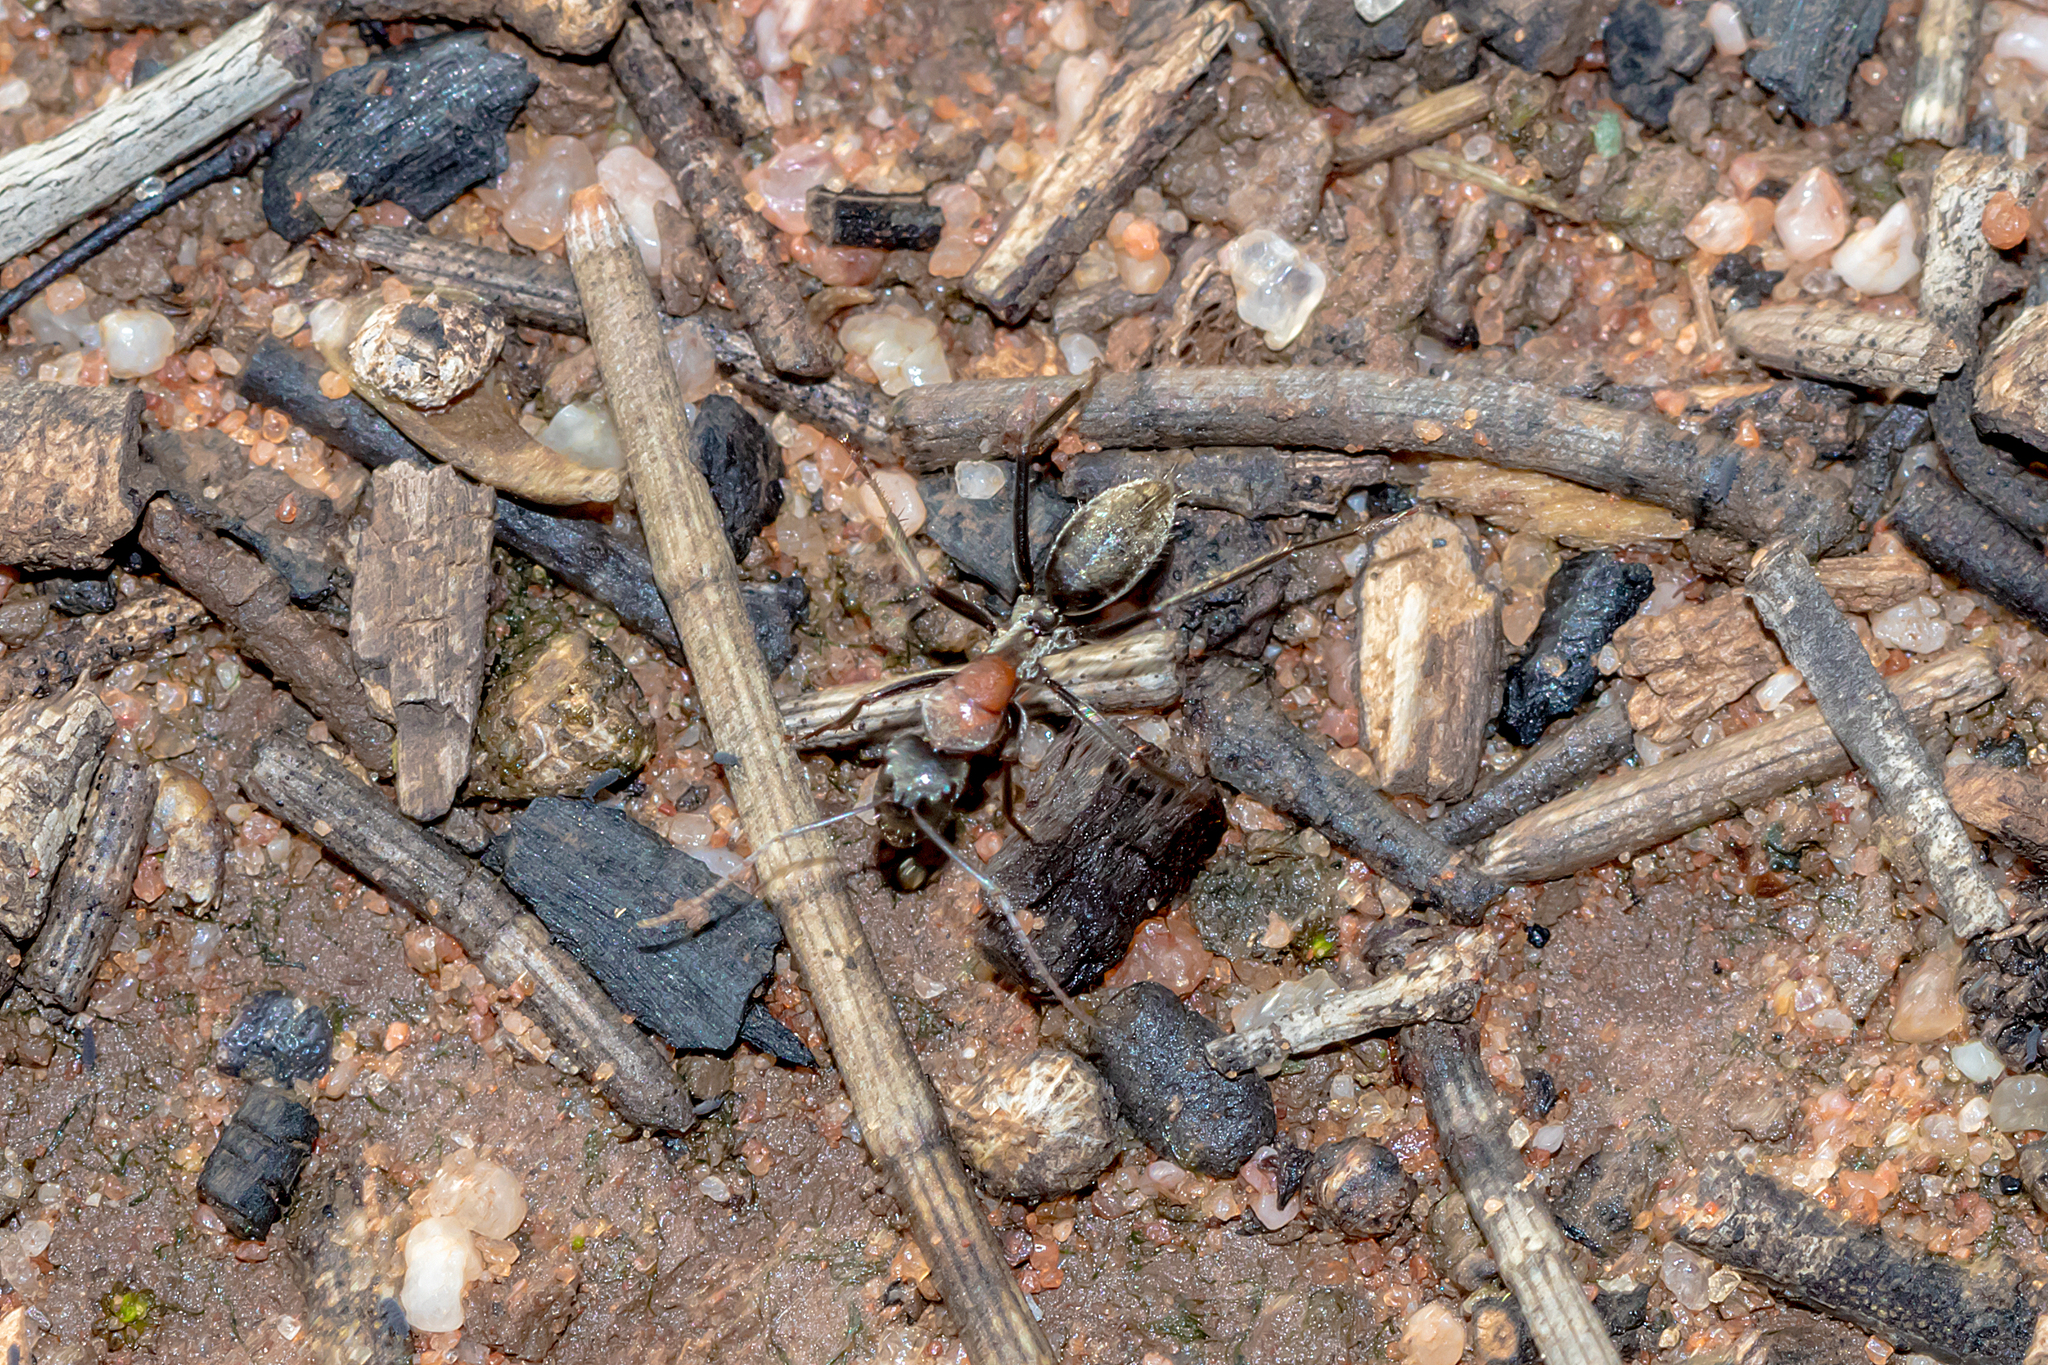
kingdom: Animalia
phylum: Arthropoda
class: Insecta
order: Hymenoptera
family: Formicidae
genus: Camponotus
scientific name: Camponotus ephippium
